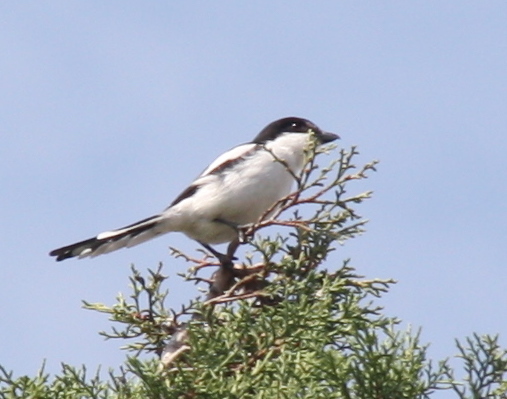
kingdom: Animalia
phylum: Chordata
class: Aves
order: Passeriformes
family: Laniidae
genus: Lanius
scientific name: Lanius collaris
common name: Southern fiscal
